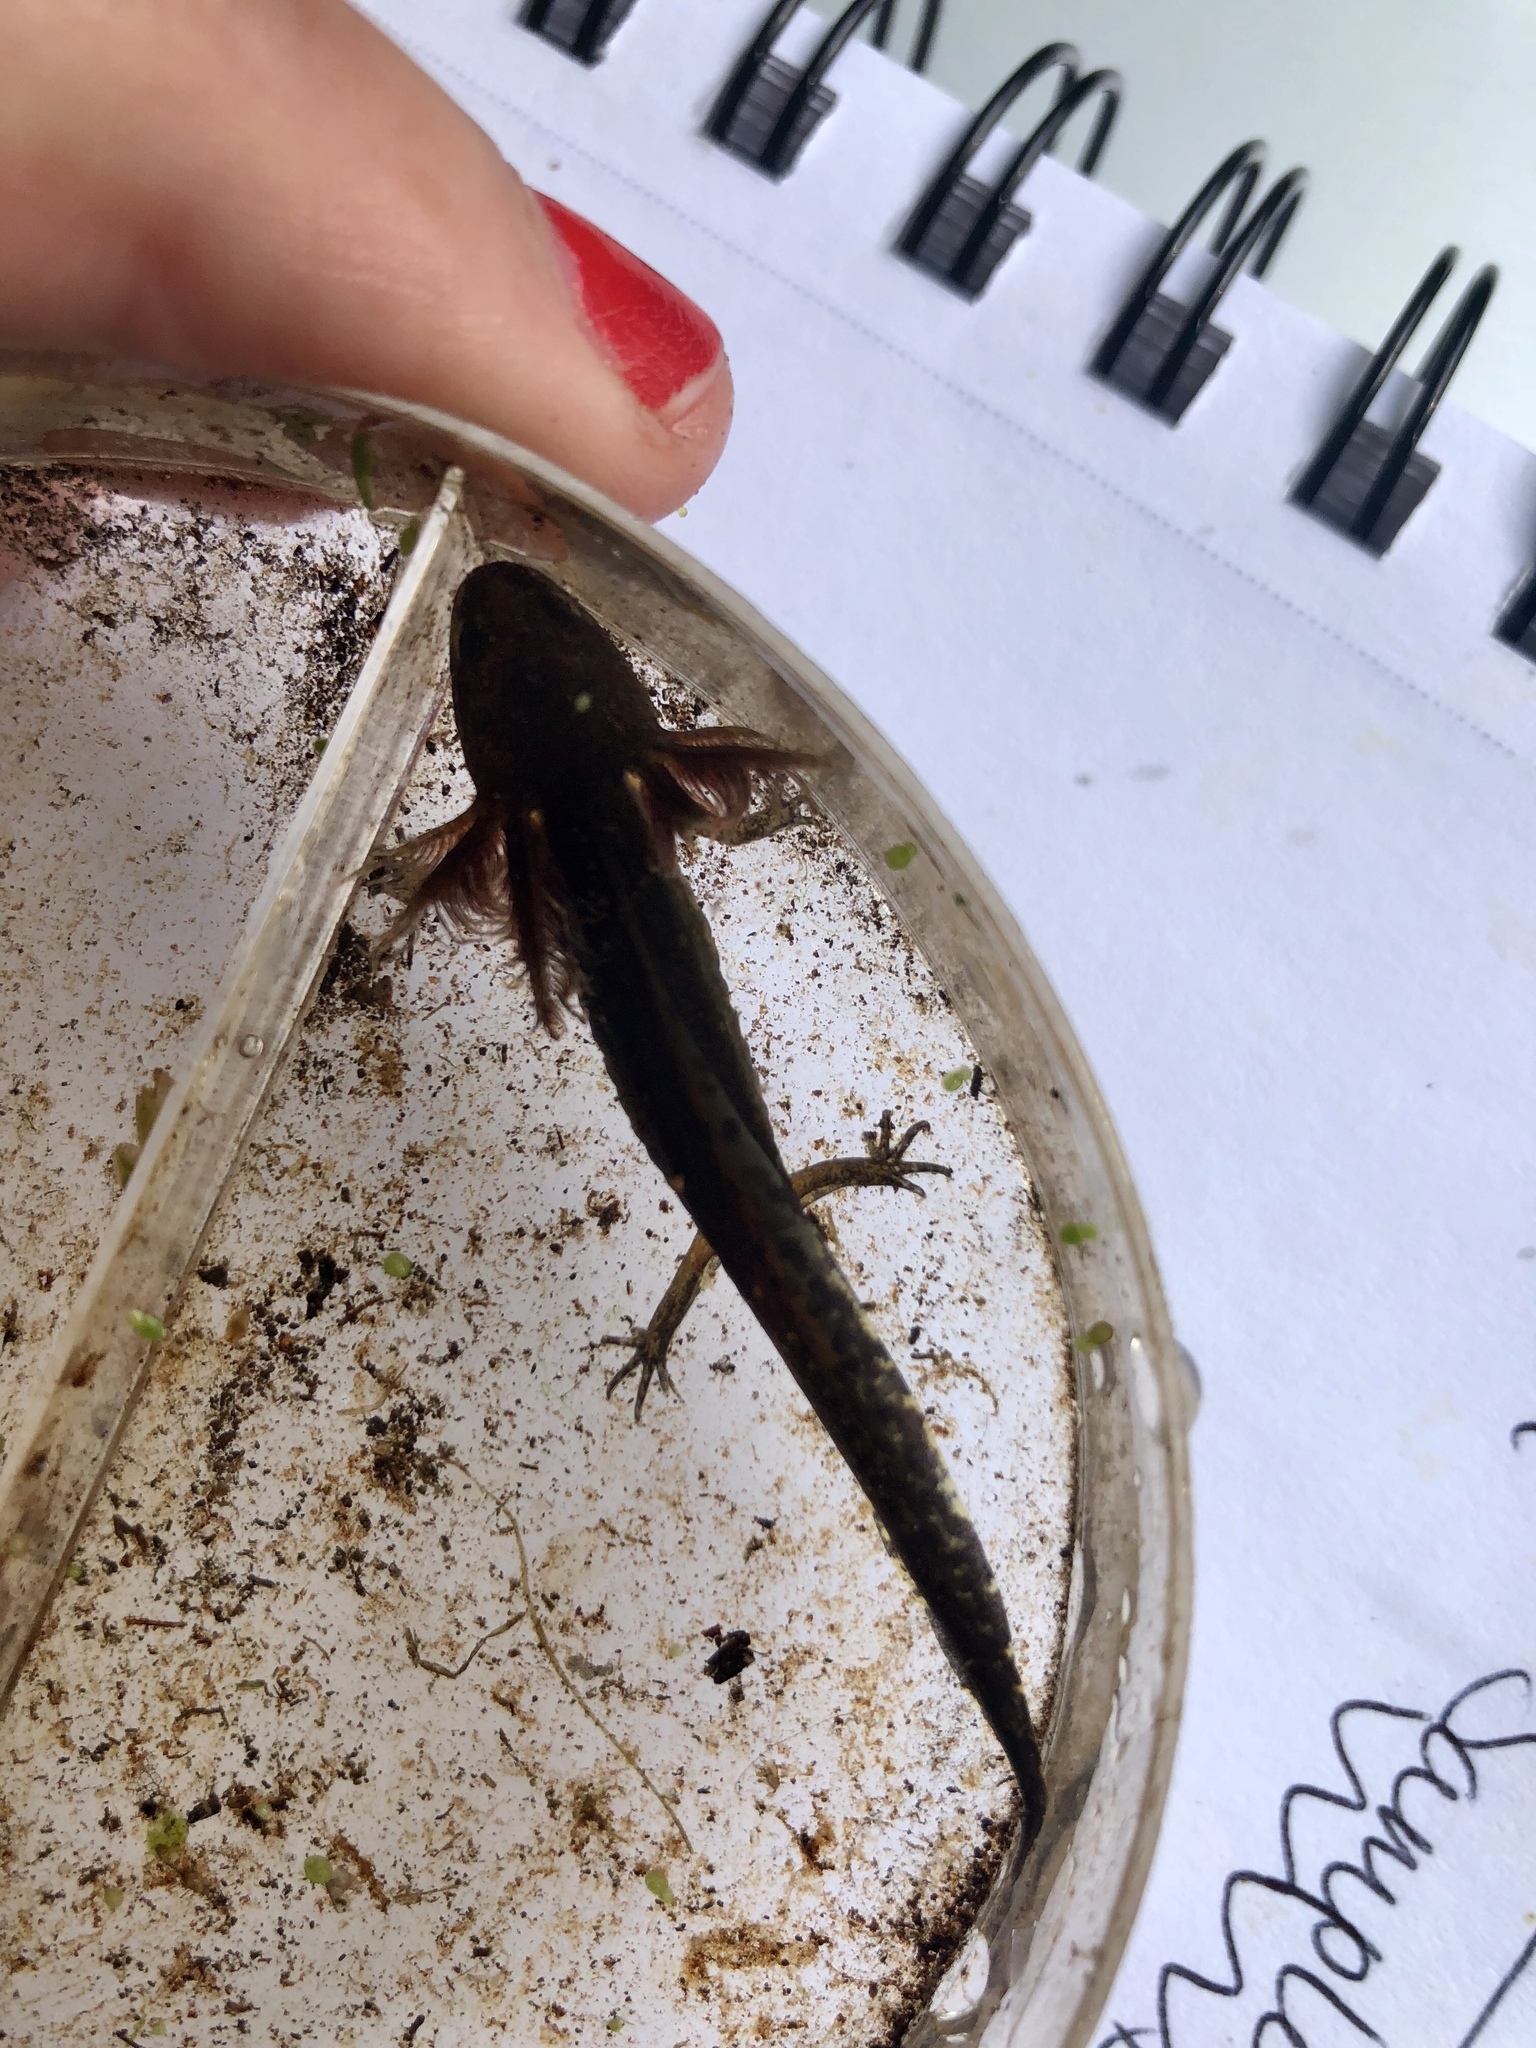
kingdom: Animalia
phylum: Chordata
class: Amphibia
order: Caudata
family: Ambystomatidae
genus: Ambystoma
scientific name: Ambystoma maculatum
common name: Spotted salamander
